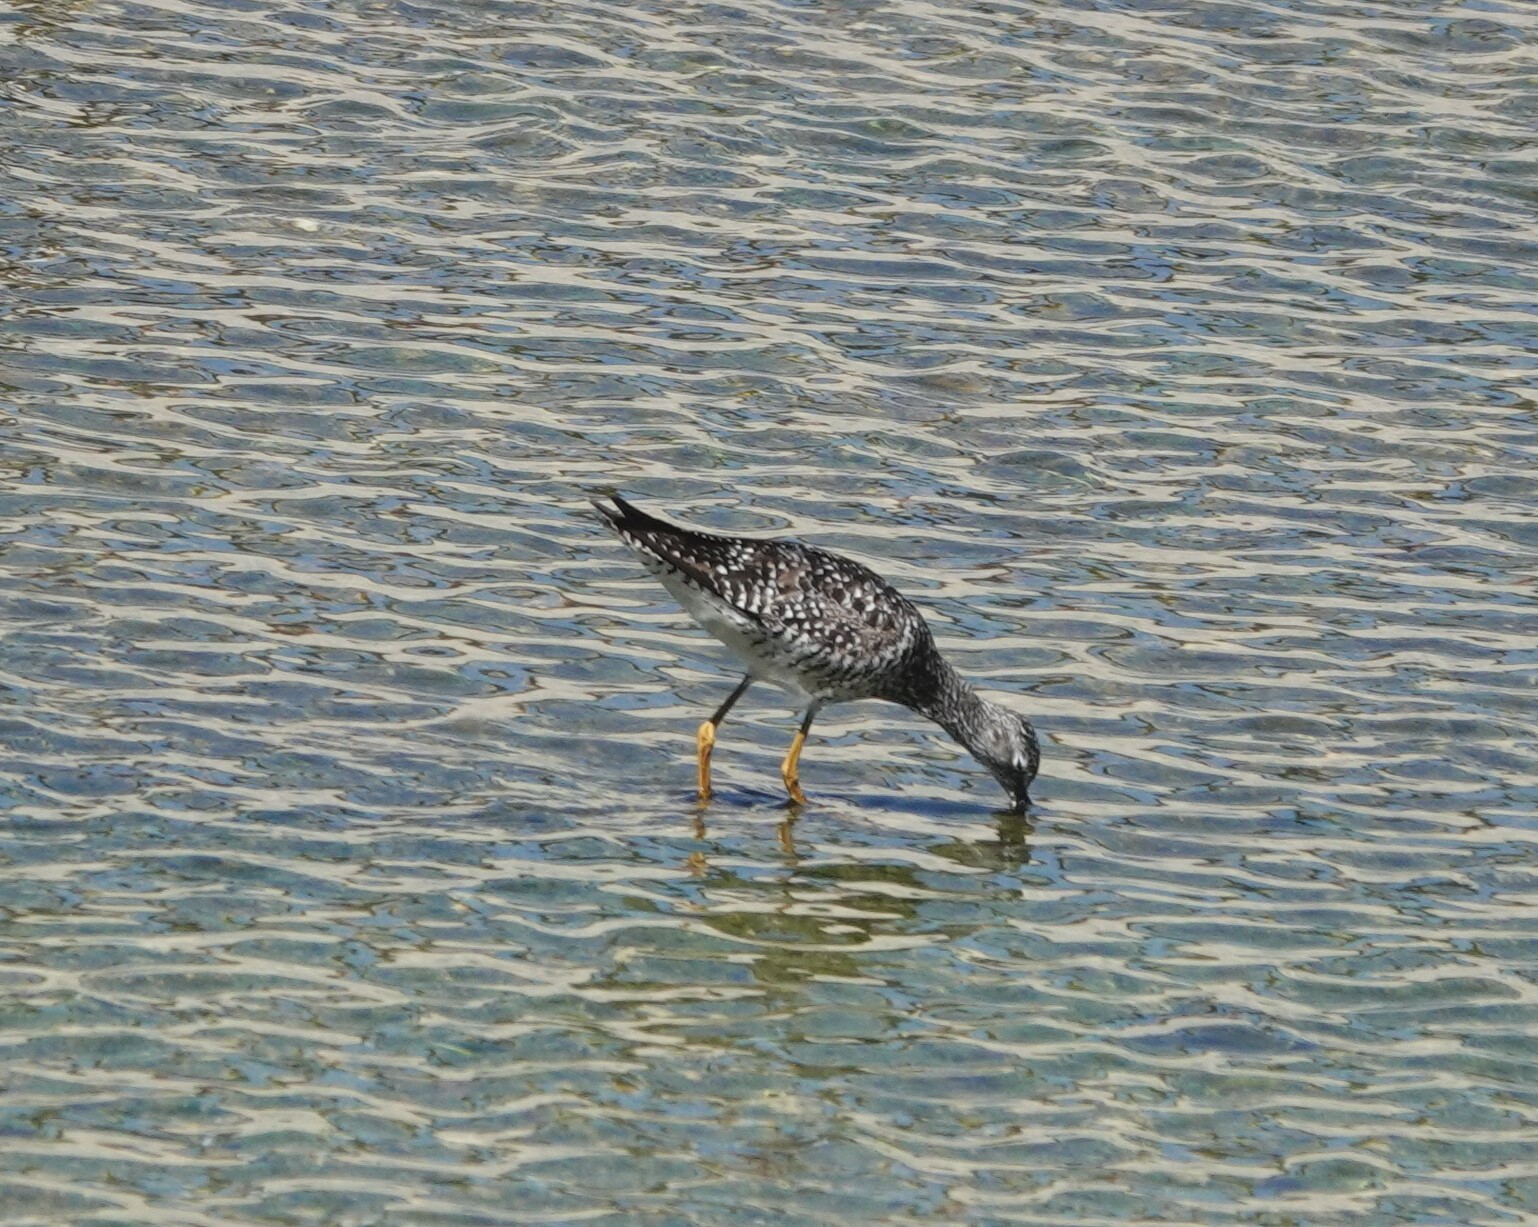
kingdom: Animalia
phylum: Chordata
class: Aves
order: Charadriiformes
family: Scolopacidae
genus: Tringa
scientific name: Tringa melanoleuca
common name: Greater yellowlegs
